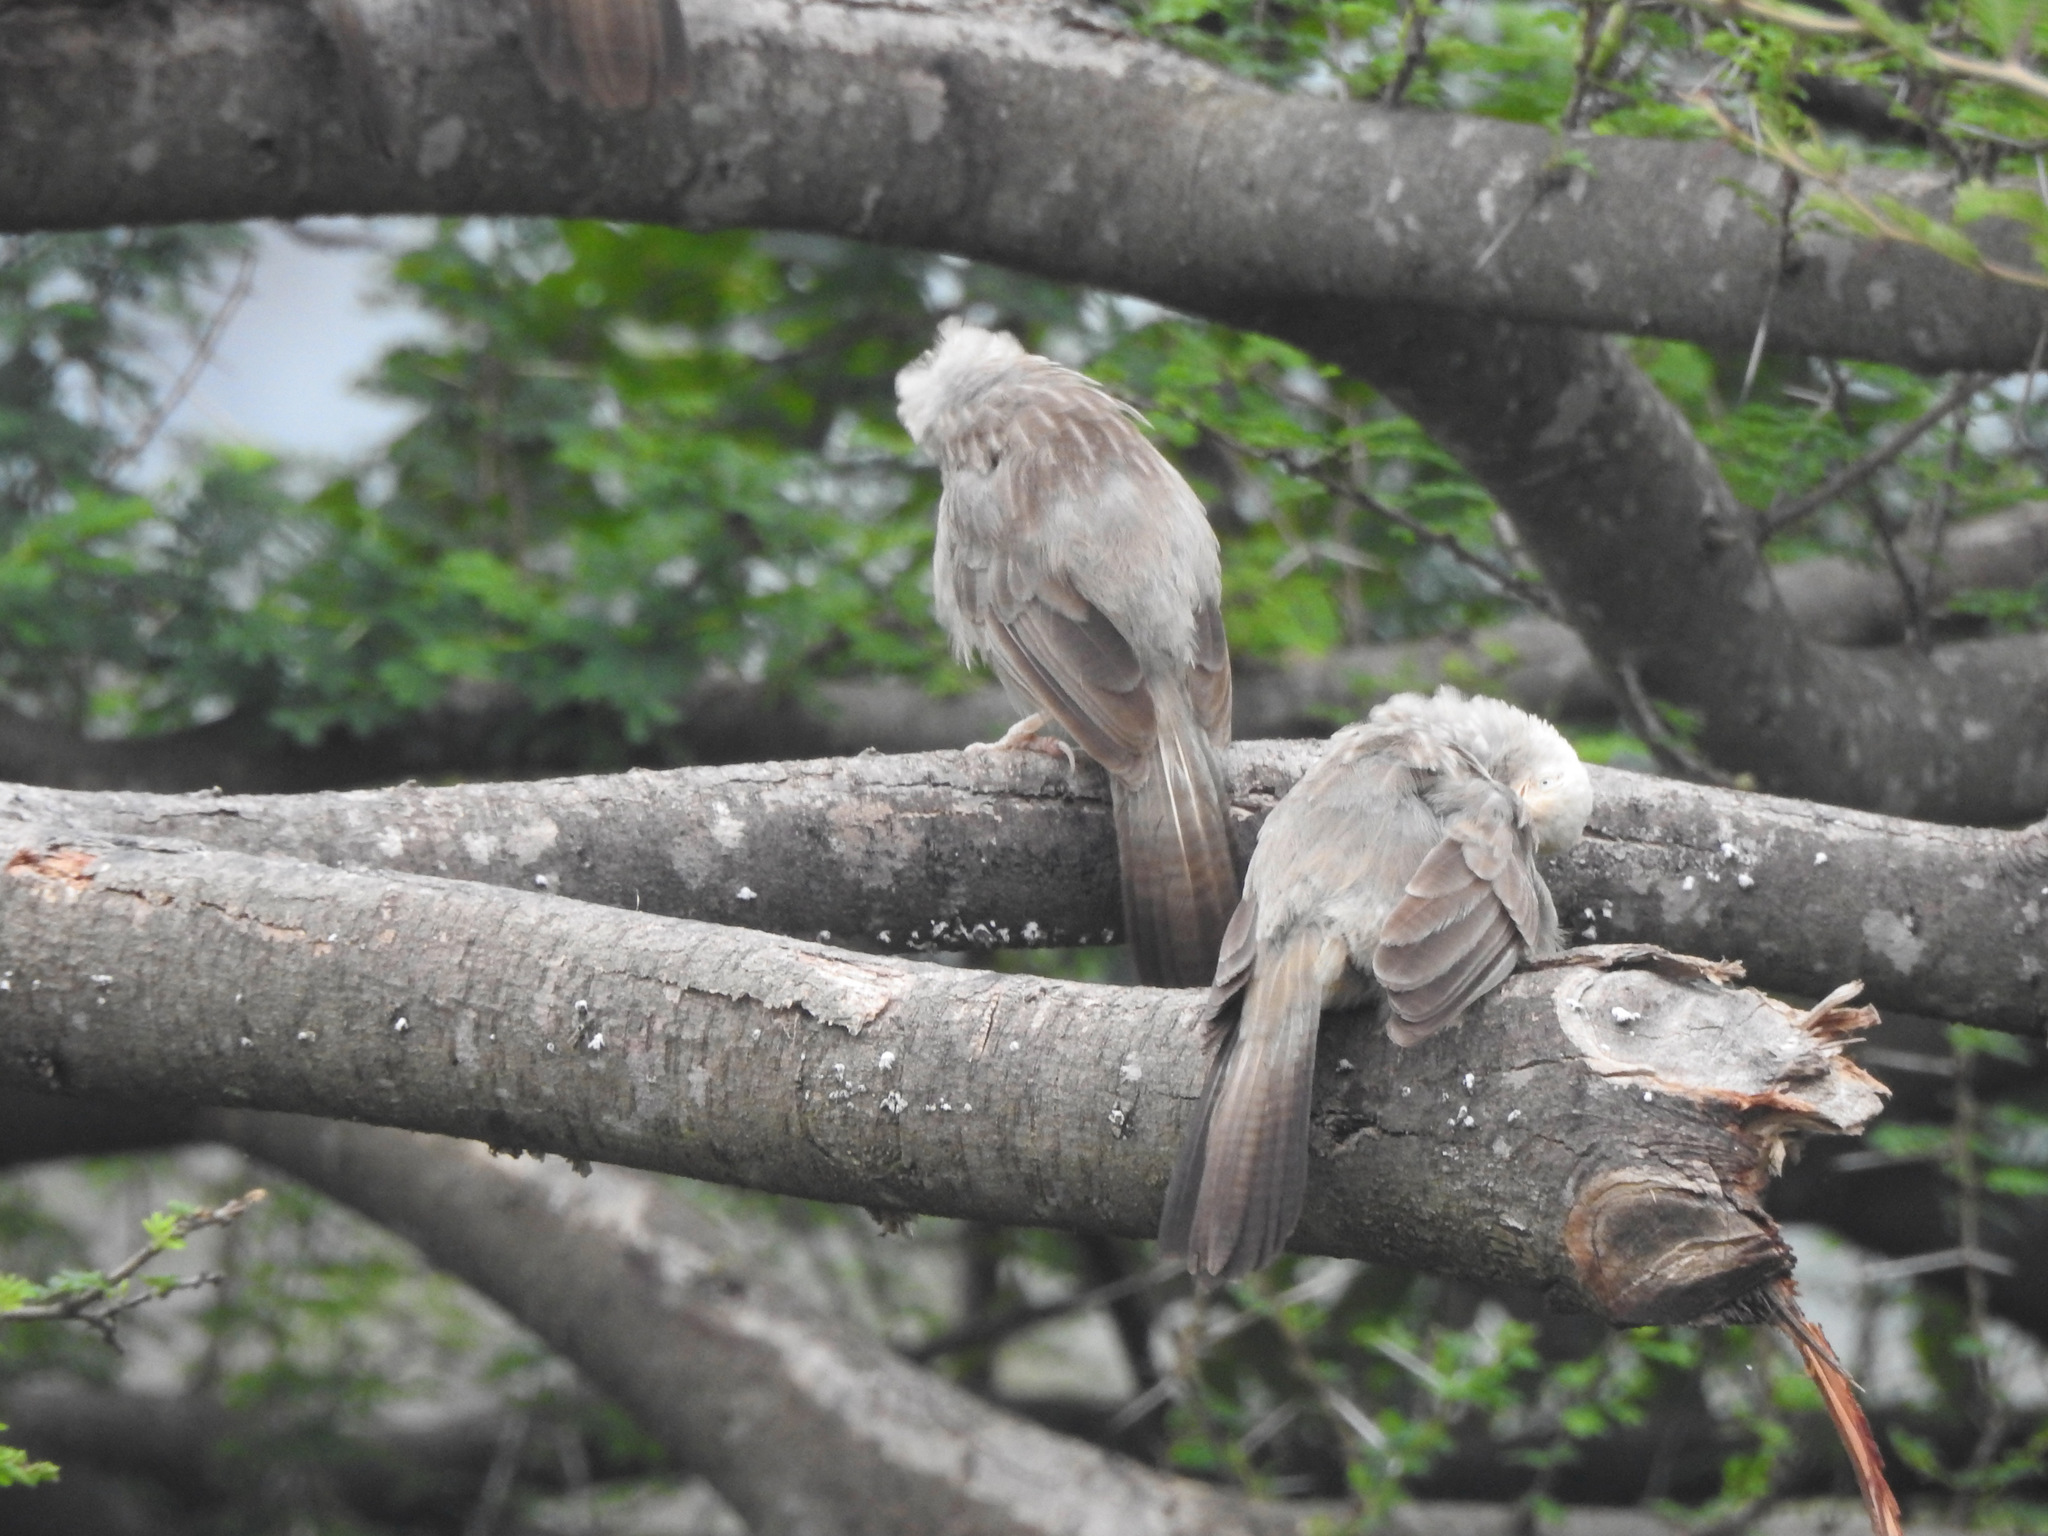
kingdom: Animalia
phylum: Chordata
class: Aves
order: Passeriformes
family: Leiothrichidae
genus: Turdoides
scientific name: Turdoides affinis
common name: Yellow-billed babbler
